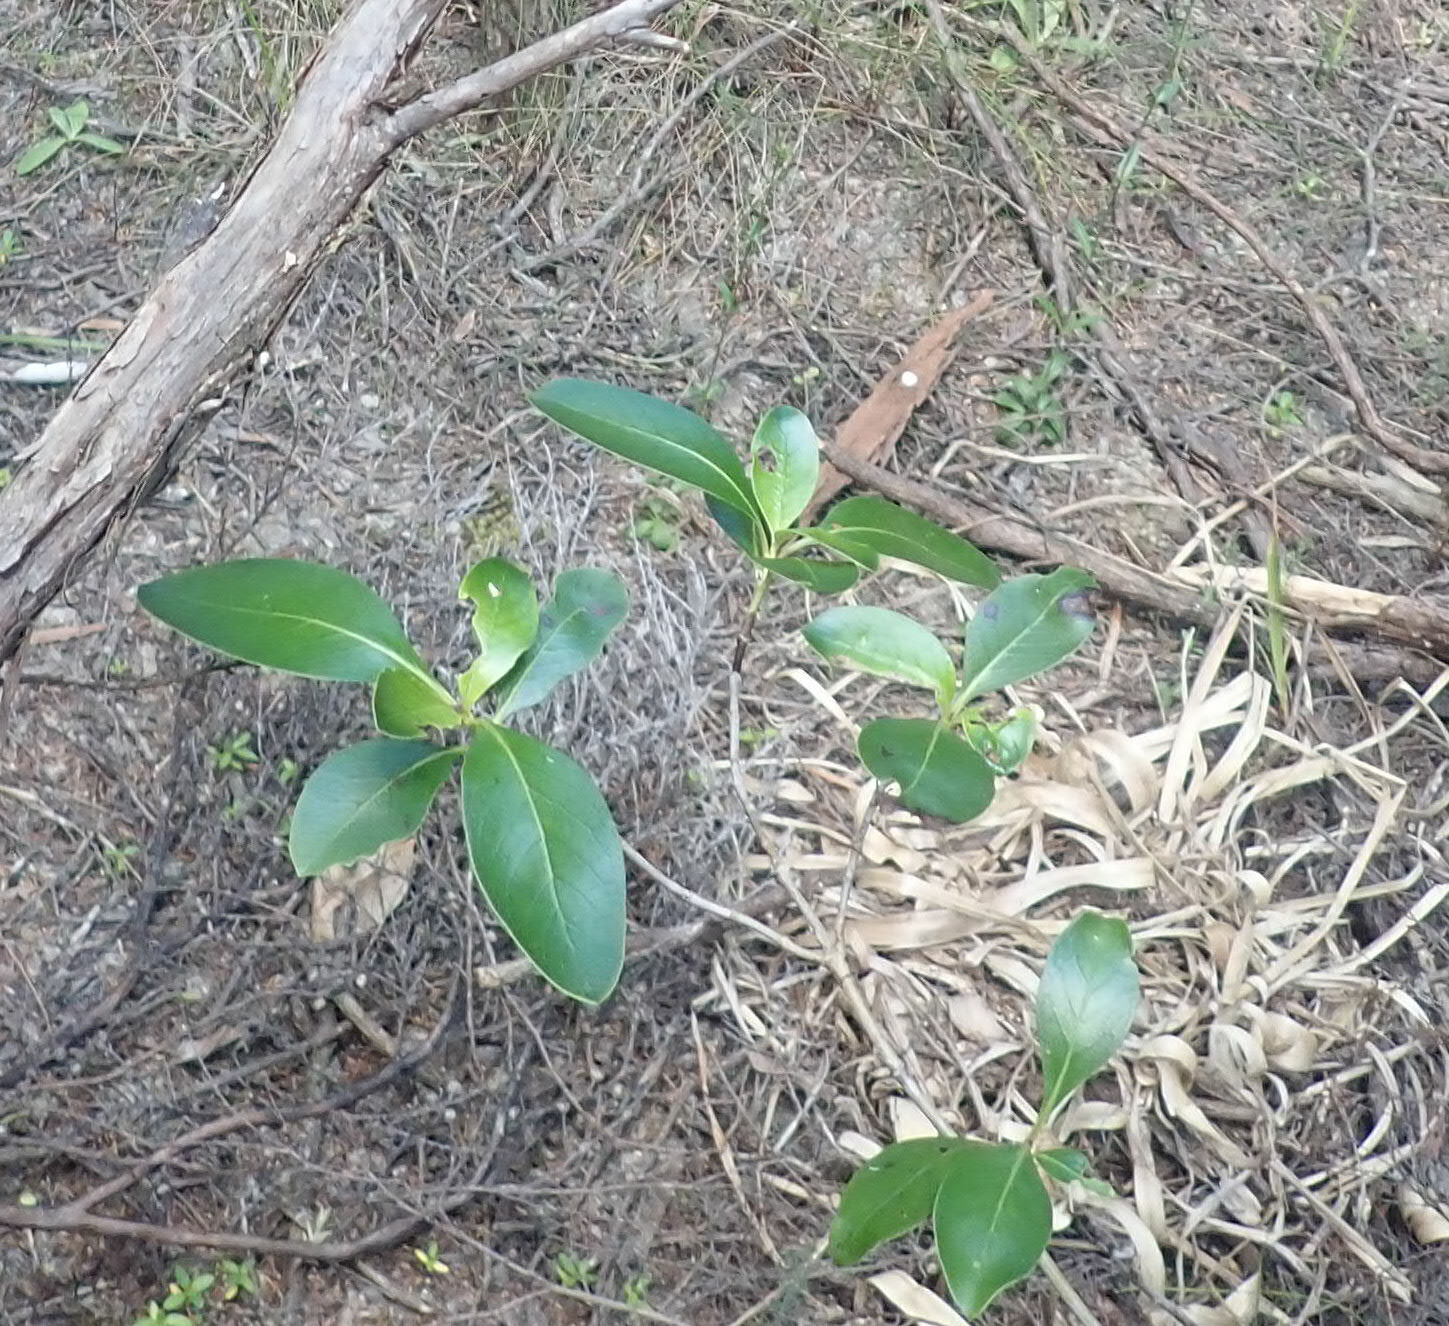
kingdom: Plantae
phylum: Tracheophyta
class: Magnoliopsida
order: Gentianales
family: Rubiaceae
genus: Coprosma
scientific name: Coprosma lucida
